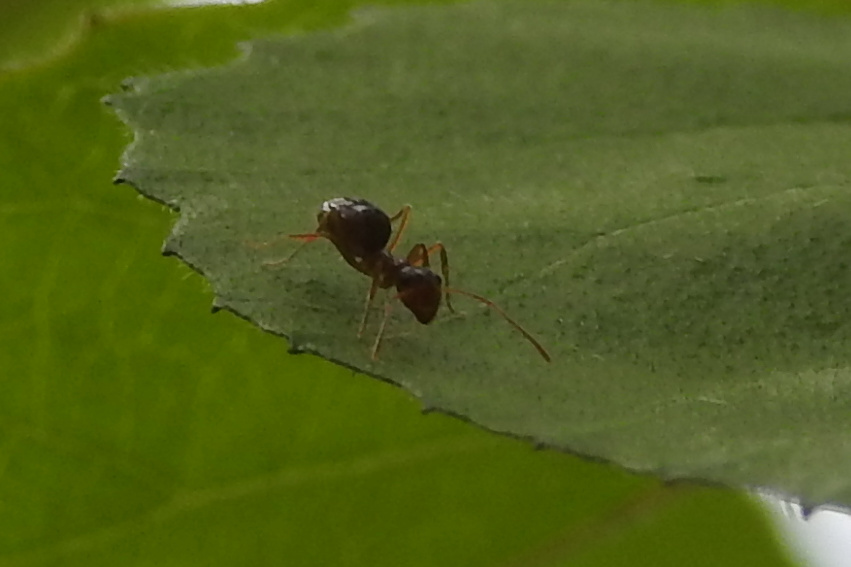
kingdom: Animalia
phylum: Arthropoda
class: Insecta
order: Hymenoptera
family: Formicidae
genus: Prenolepis
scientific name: Prenolepis imparis
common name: Small honey ant
